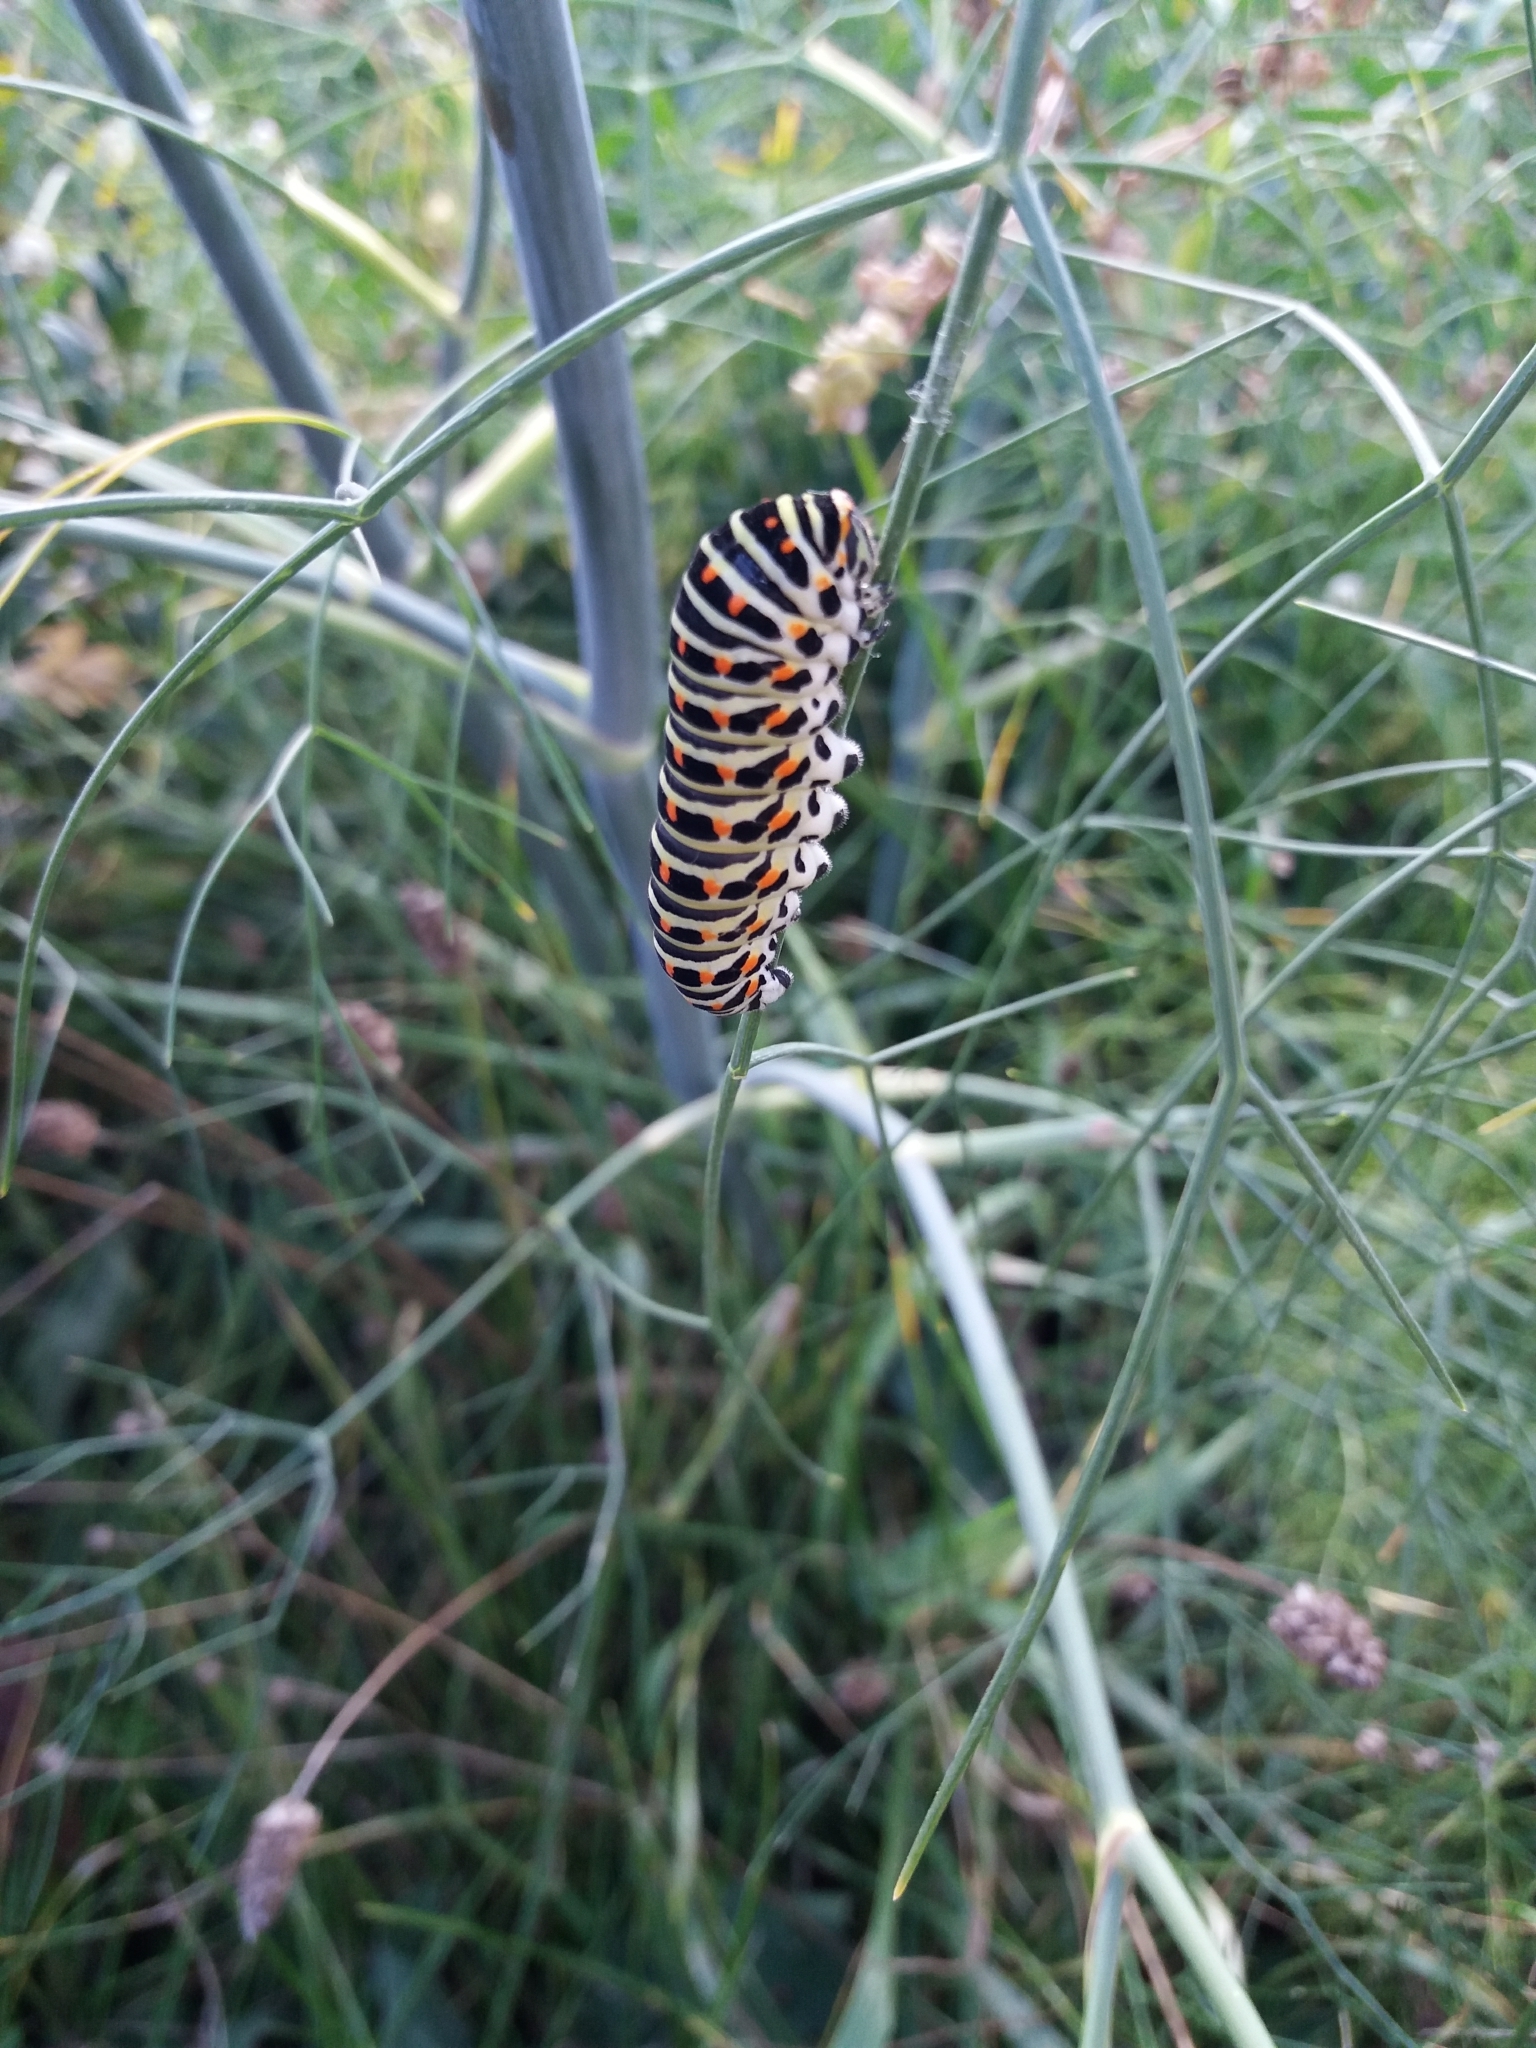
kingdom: Animalia
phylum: Arthropoda
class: Insecta
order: Lepidoptera
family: Papilionidae
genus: Papilio
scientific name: Papilio machaon
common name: Swallowtail
